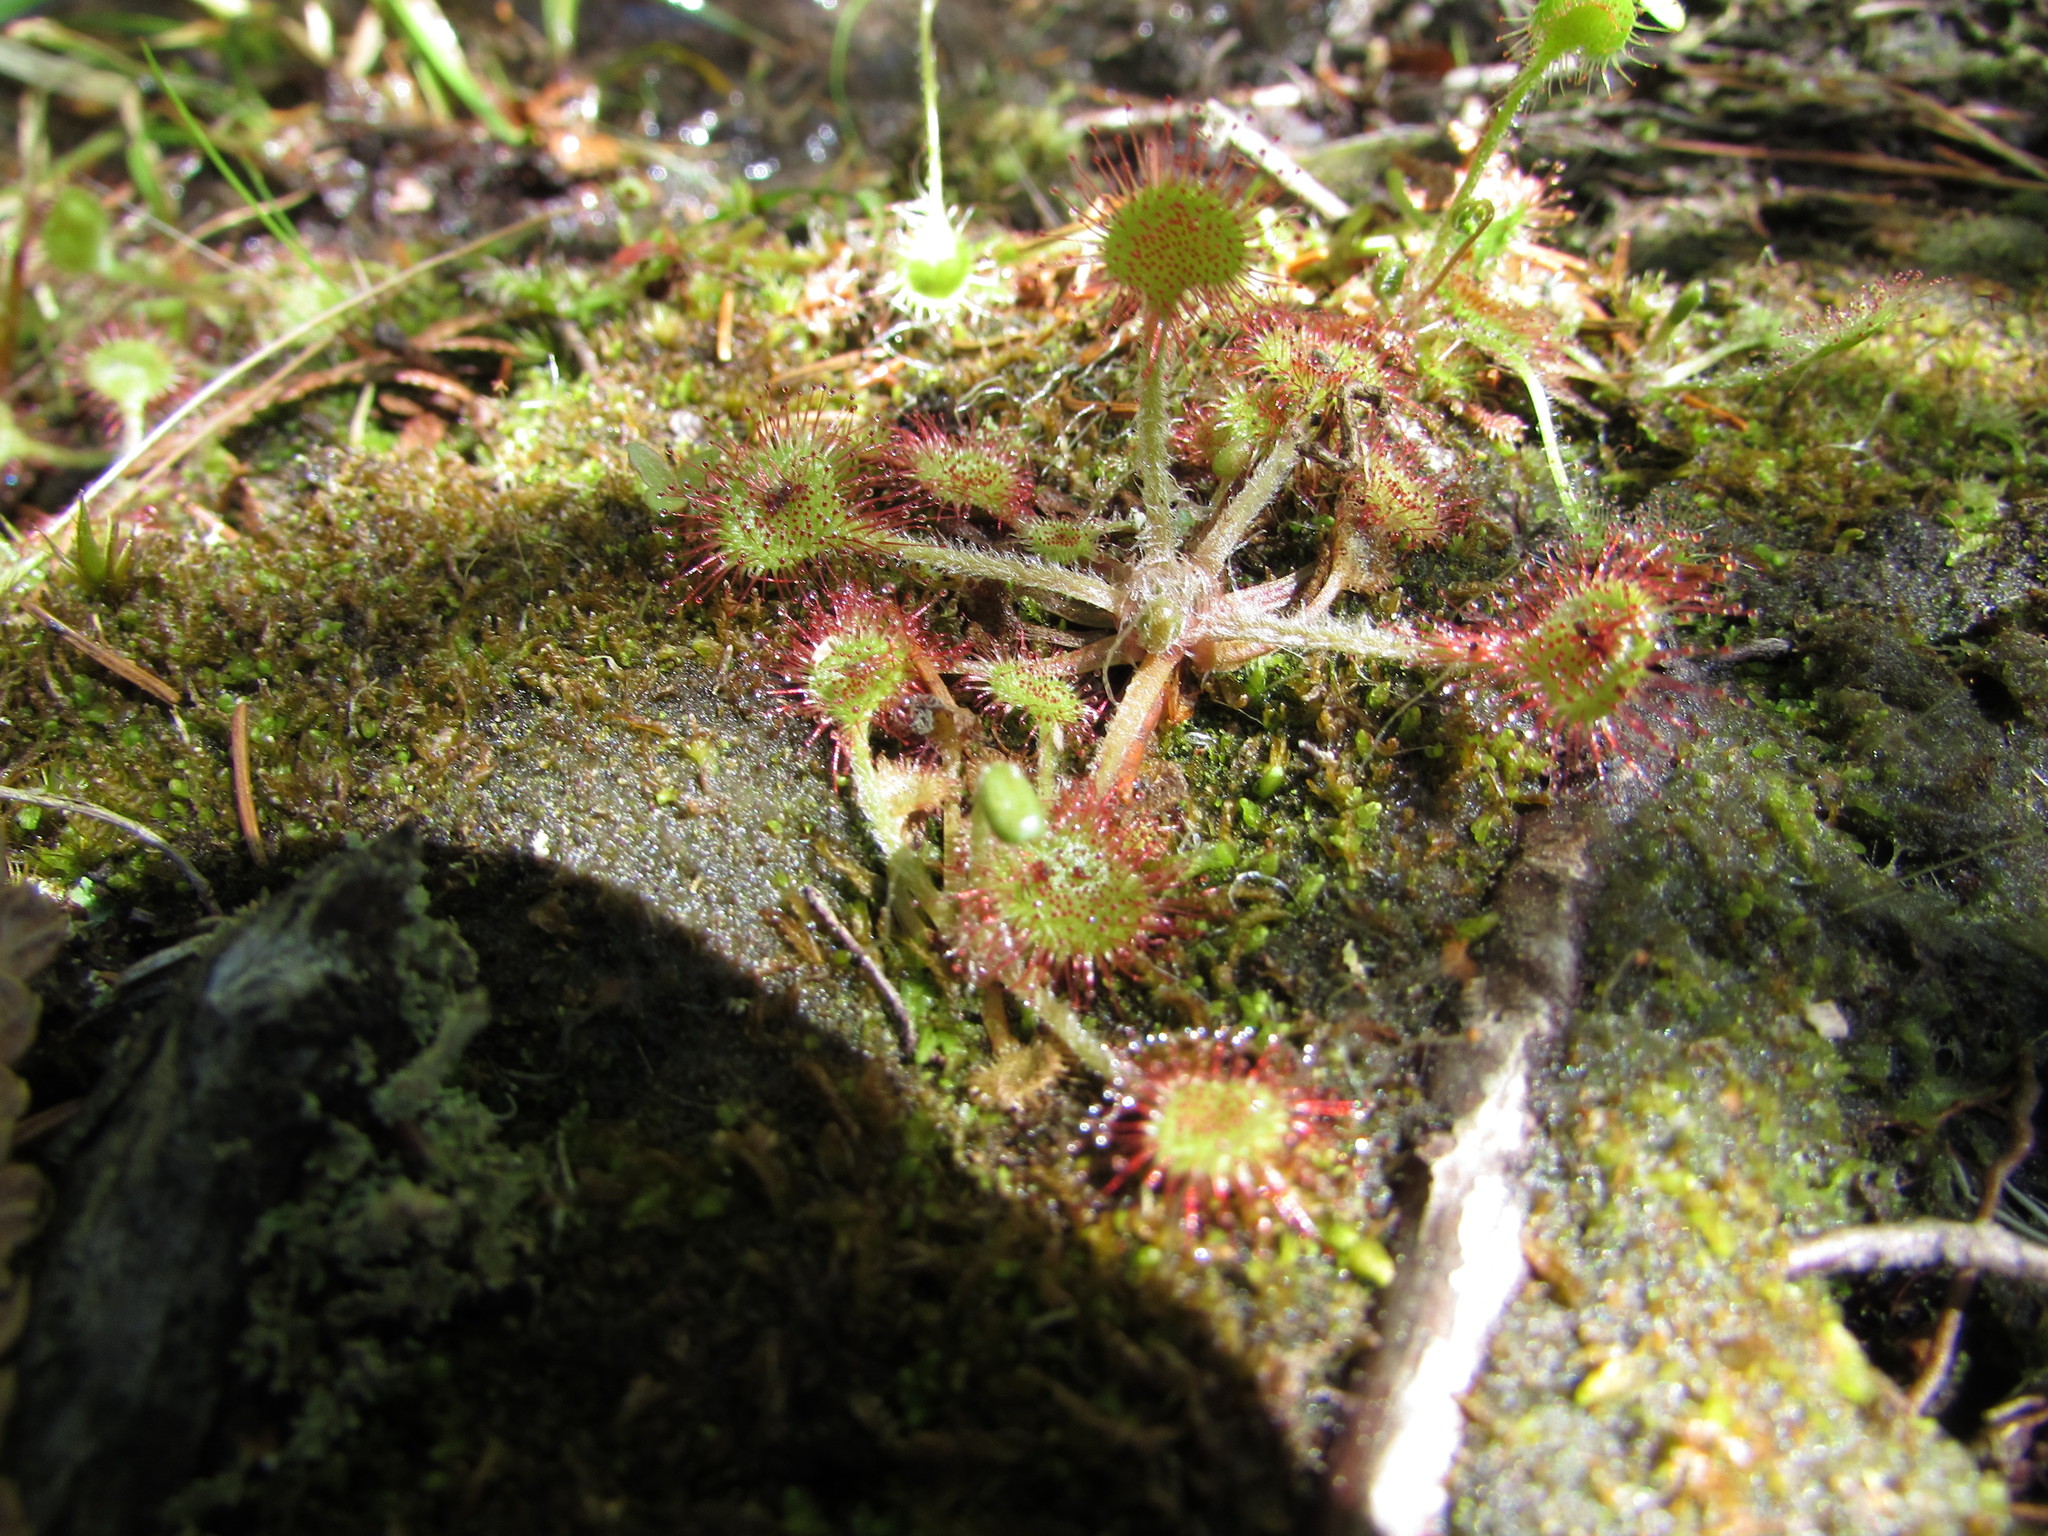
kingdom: Plantae
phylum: Tracheophyta
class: Magnoliopsida
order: Caryophyllales
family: Droseraceae
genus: Drosera
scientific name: Drosera rotundifolia
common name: Round-leaved sundew
